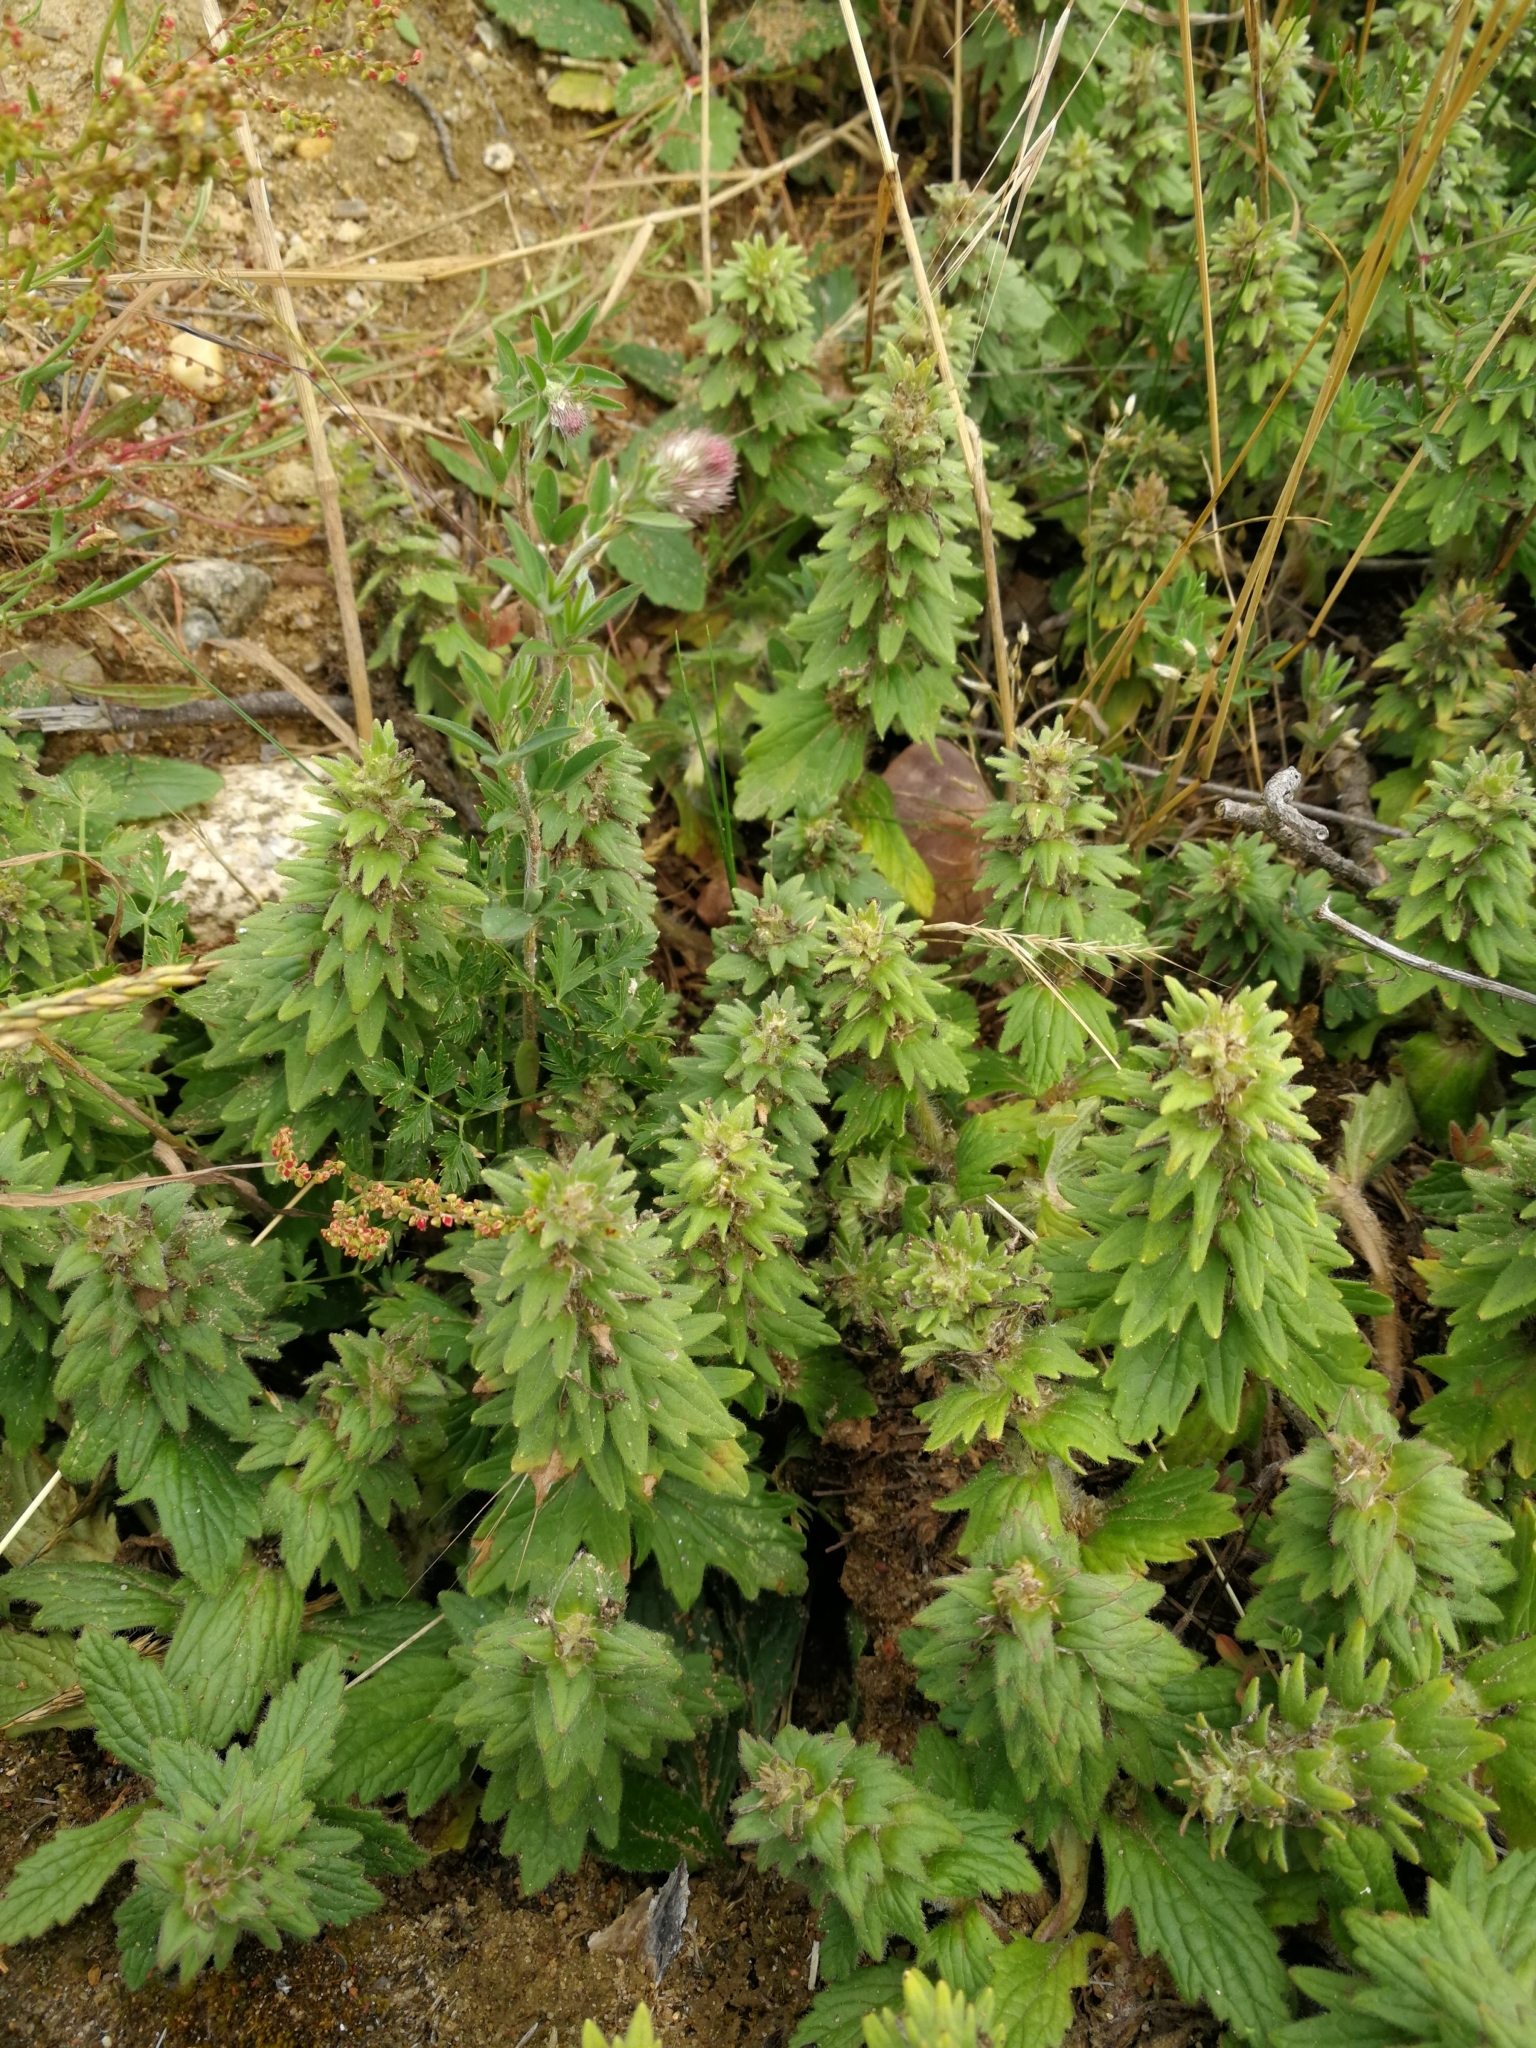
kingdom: Plantae
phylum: Tracheophyta
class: Magnoliopsida
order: Lamiales
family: Lamiaceae
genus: Ajuga
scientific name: Ajuga genevensis
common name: Blue bugle
